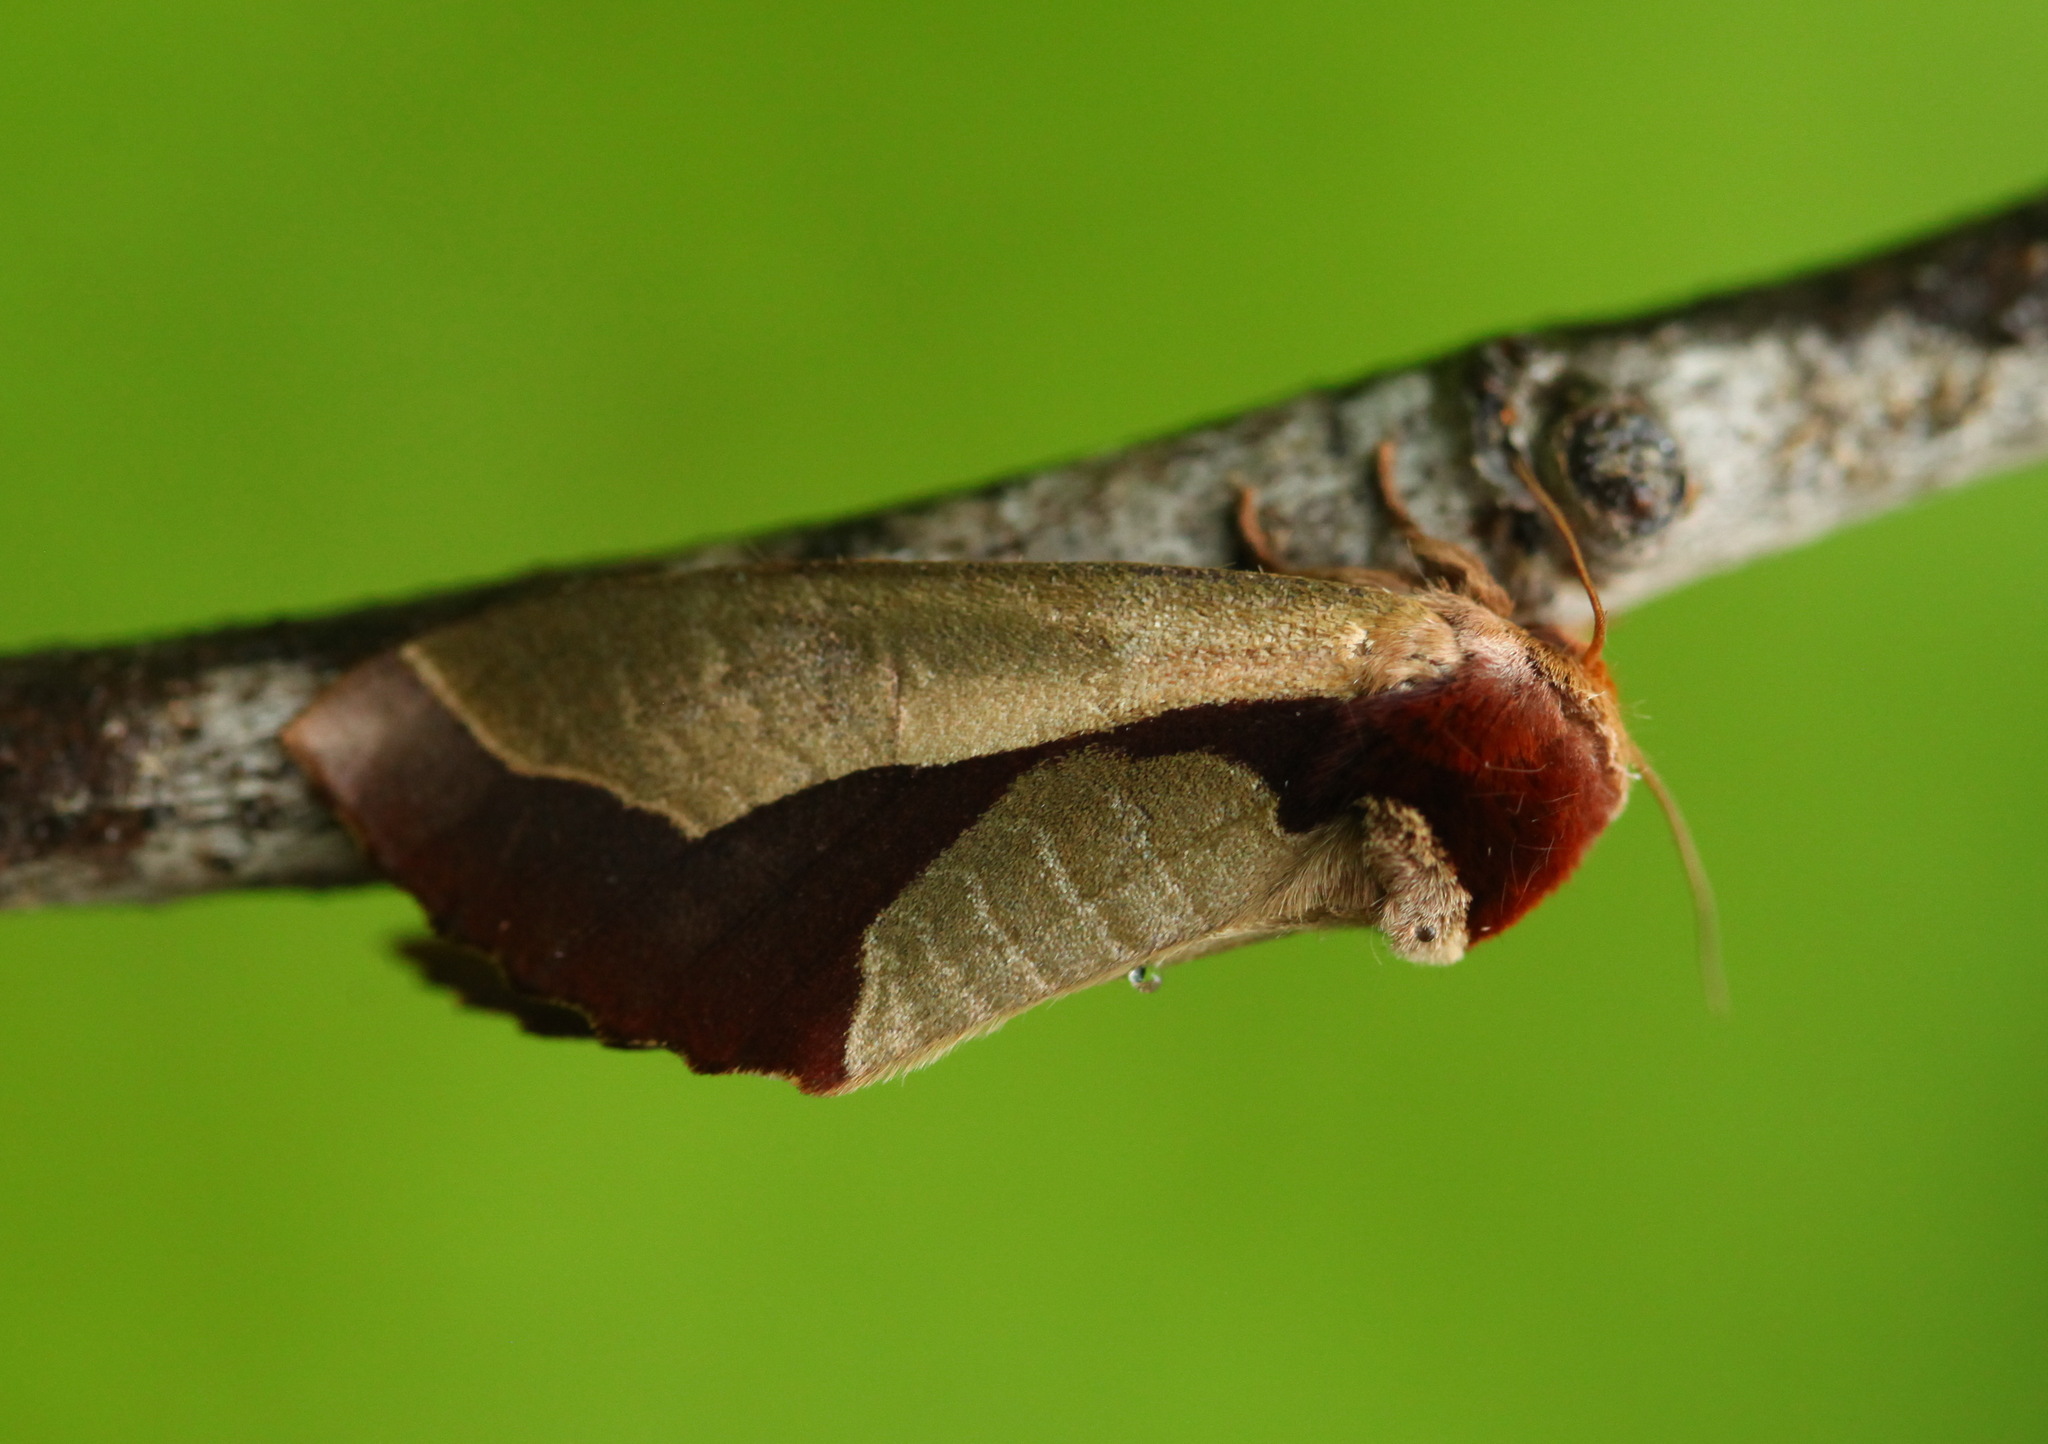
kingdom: Animalia
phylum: Arthropoda
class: Insecta
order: Lepidoptera
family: Notodontidae
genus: Uropyia
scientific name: Uropyia meticulodina
